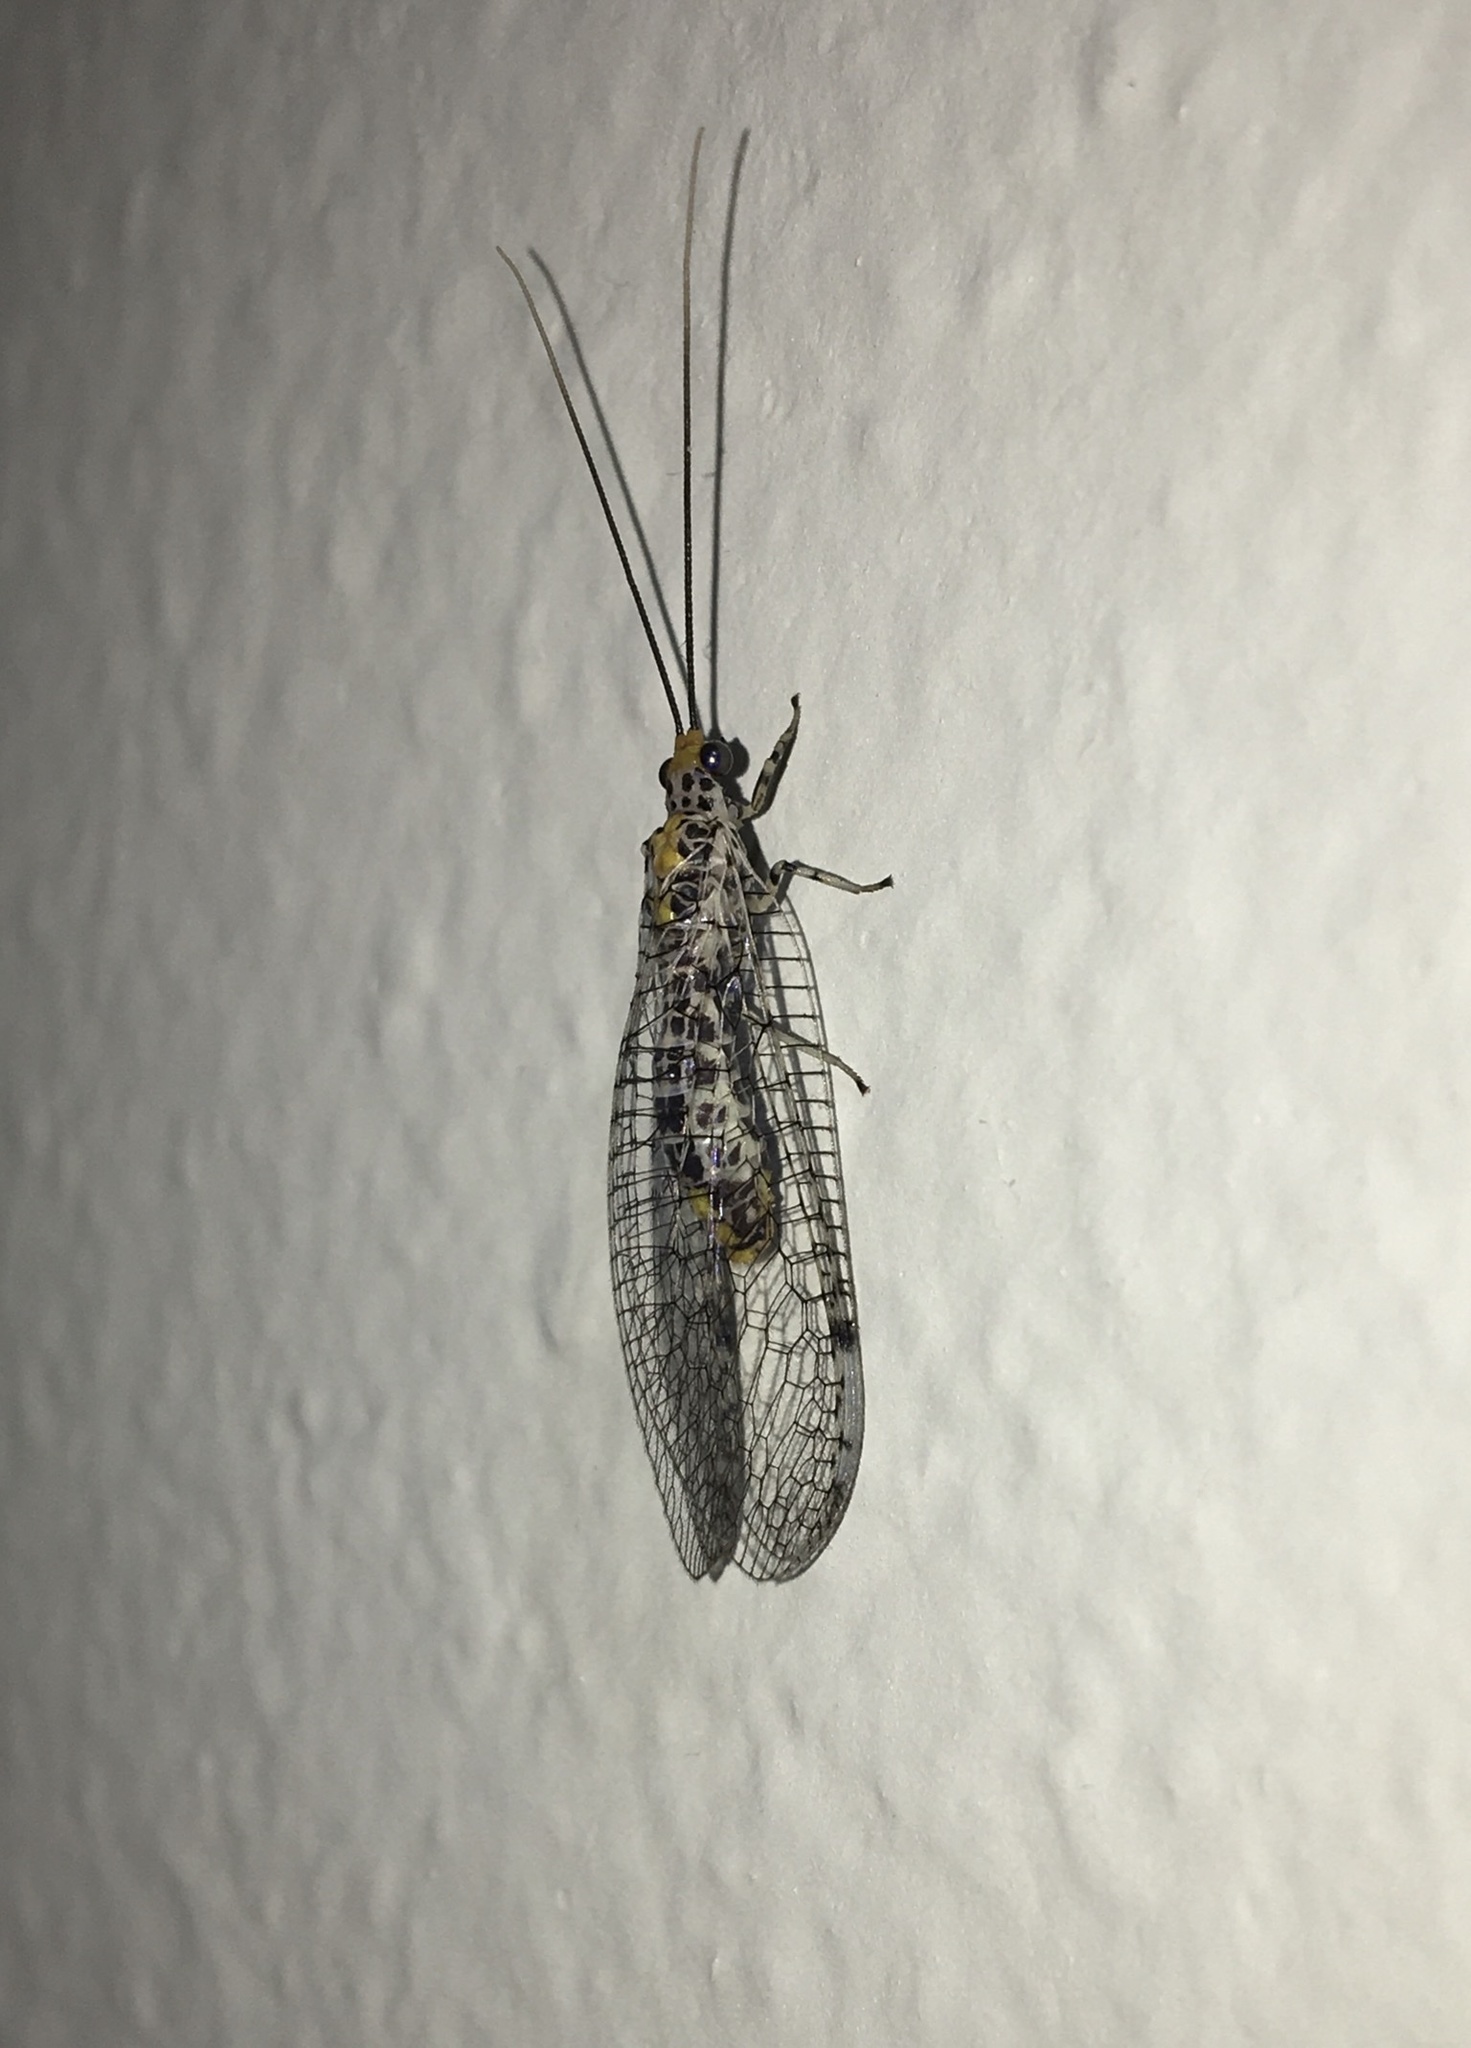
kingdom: Animalia
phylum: Arthropoda
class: Insecta
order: Neuroptera
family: Chrysopidae
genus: Abachrysa
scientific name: Abachrysa eureka
